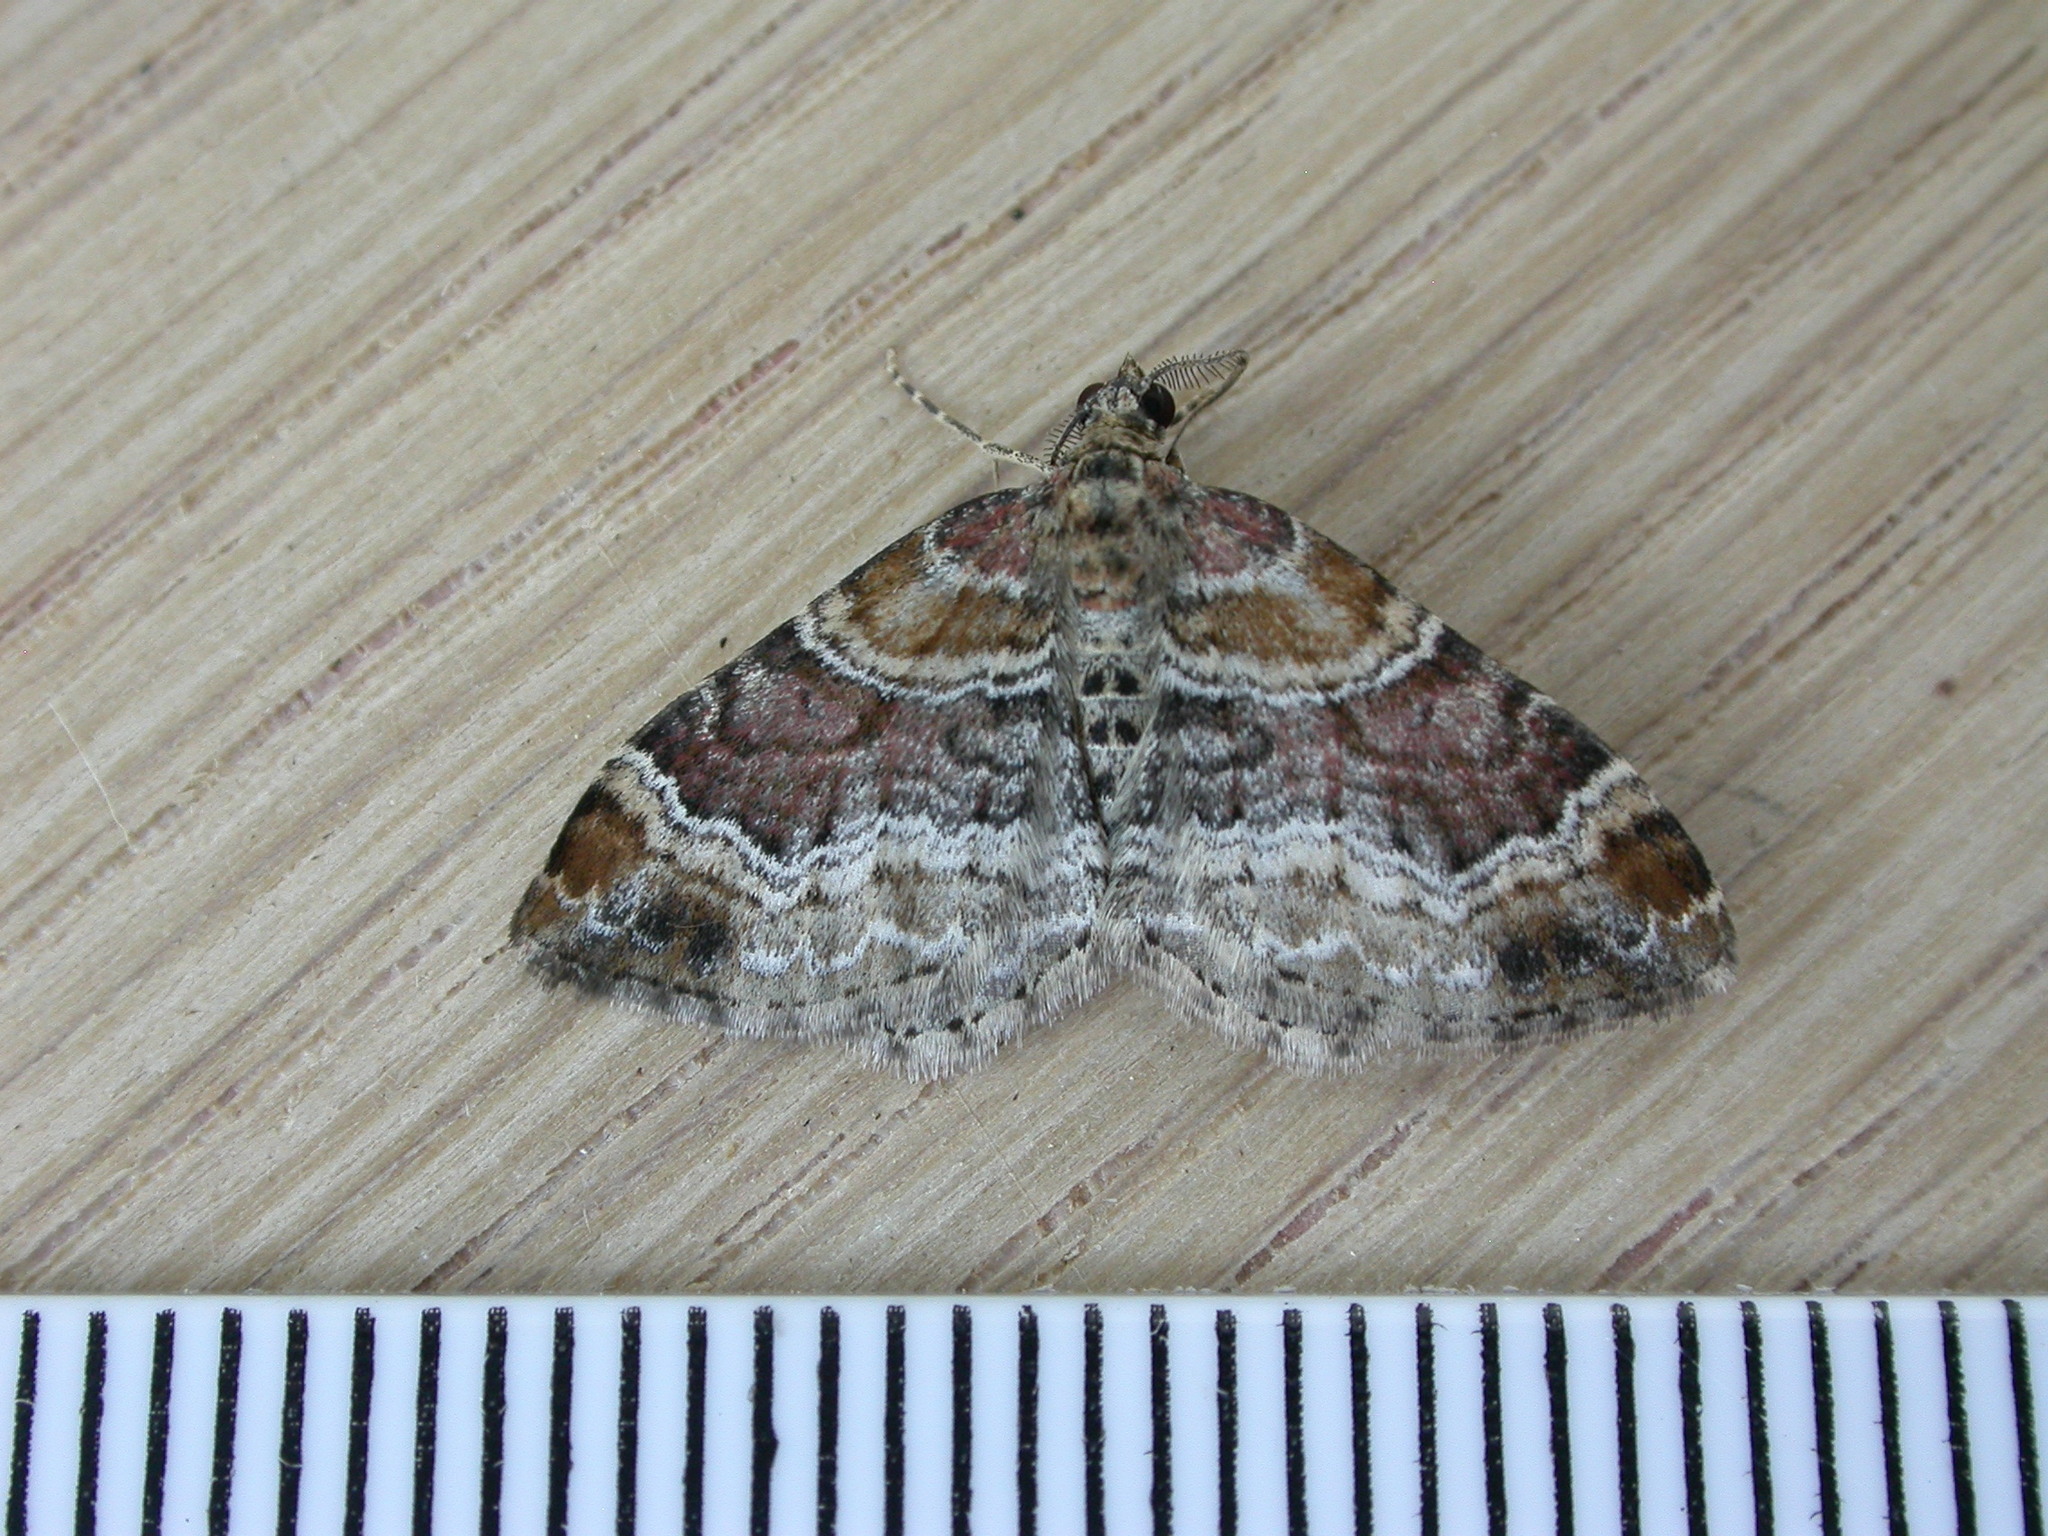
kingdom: Animalia
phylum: Arthropoda
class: Insecta
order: Lepidoptera
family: Geometridae
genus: Xanthorhoe
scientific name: Xanthorhoe spadicearia
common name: Red twin-spot carpet
